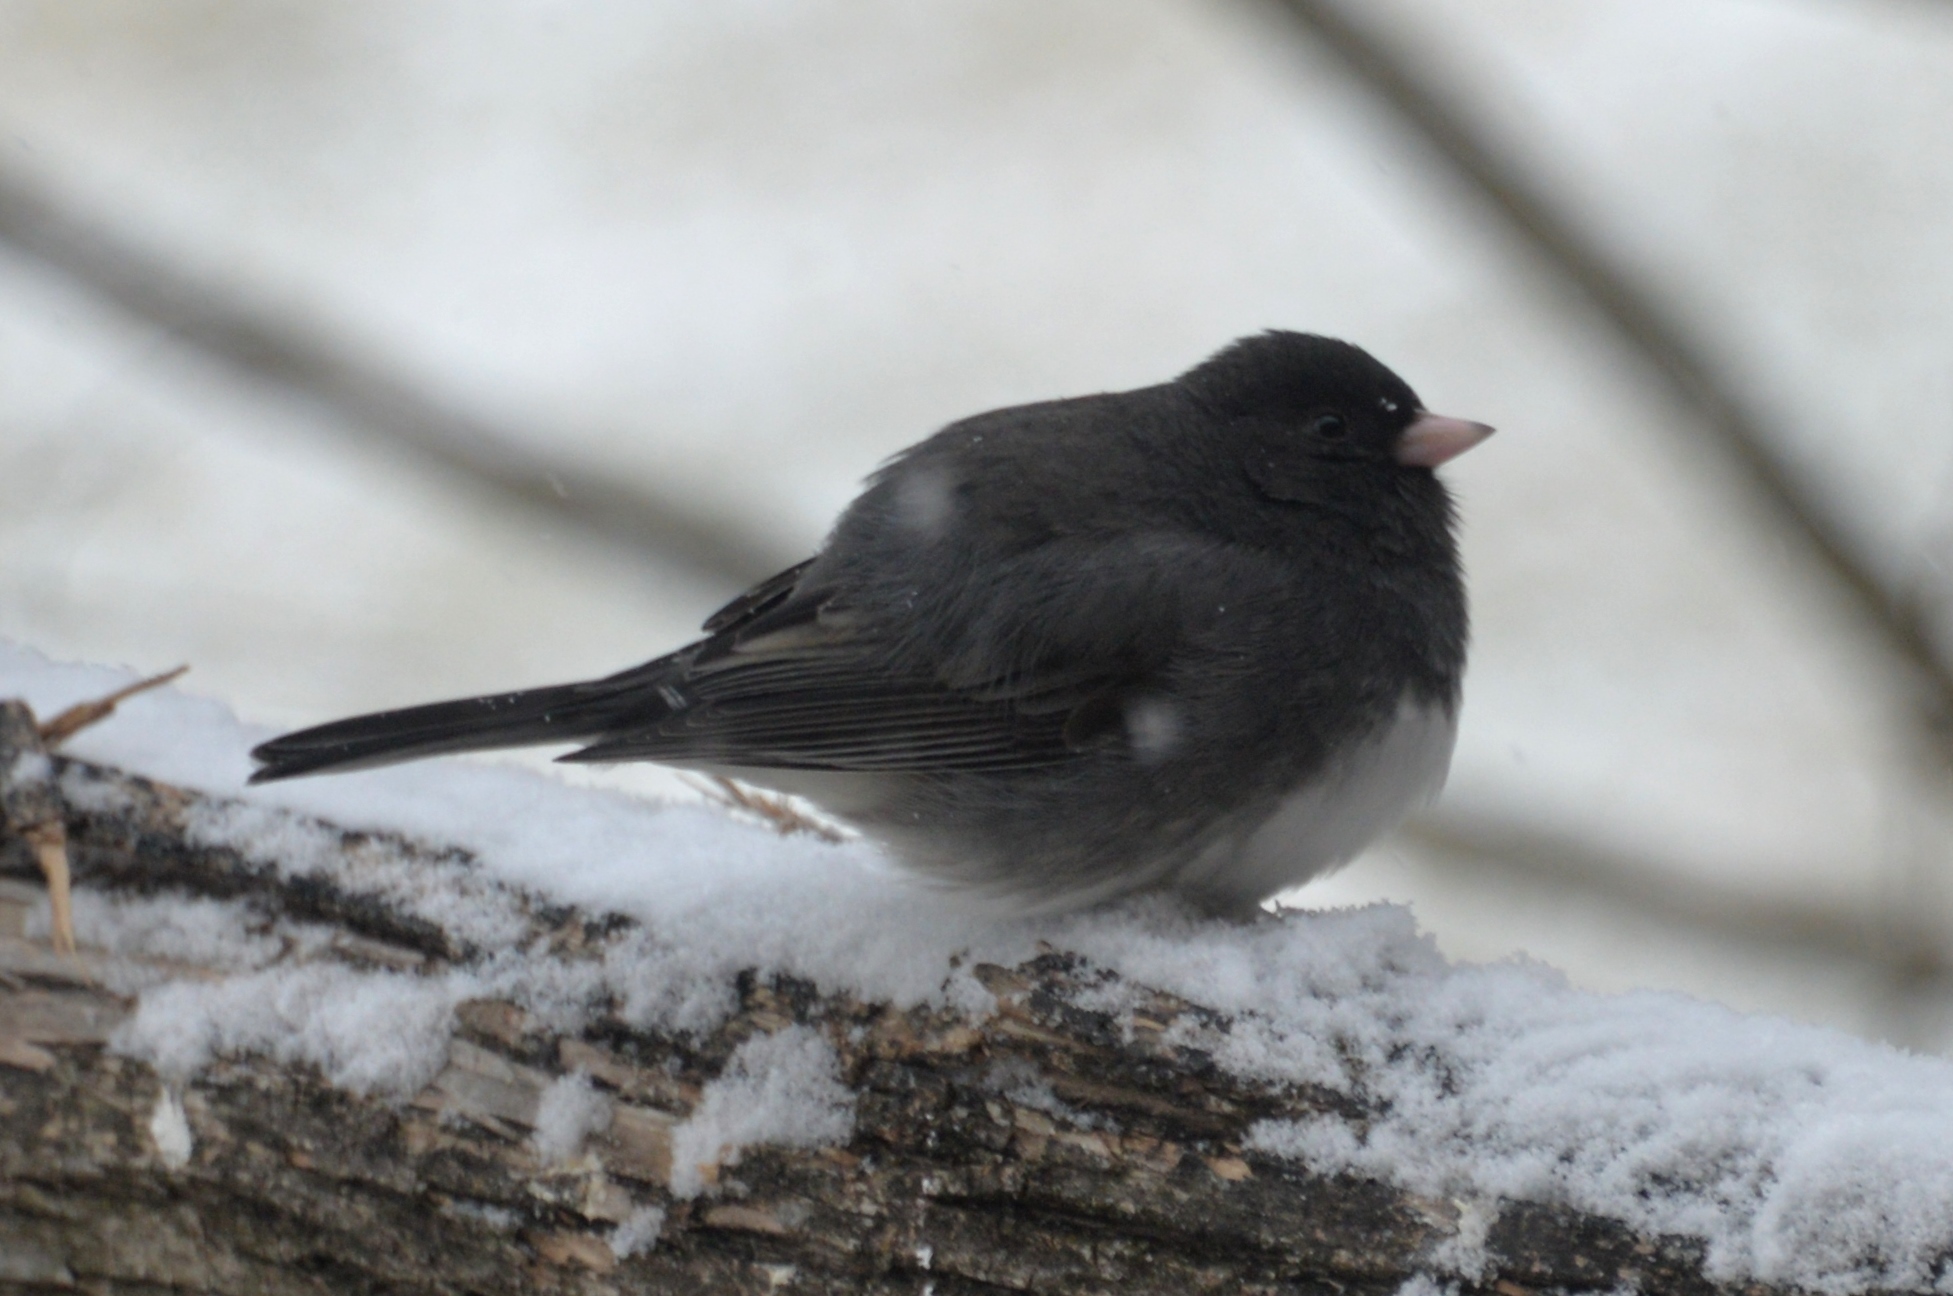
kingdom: Animalia
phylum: Chordata
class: Aves
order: Passeriformes
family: Passerellidae
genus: Junco
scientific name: Junco hyemalis
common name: Dark-eyed junco
